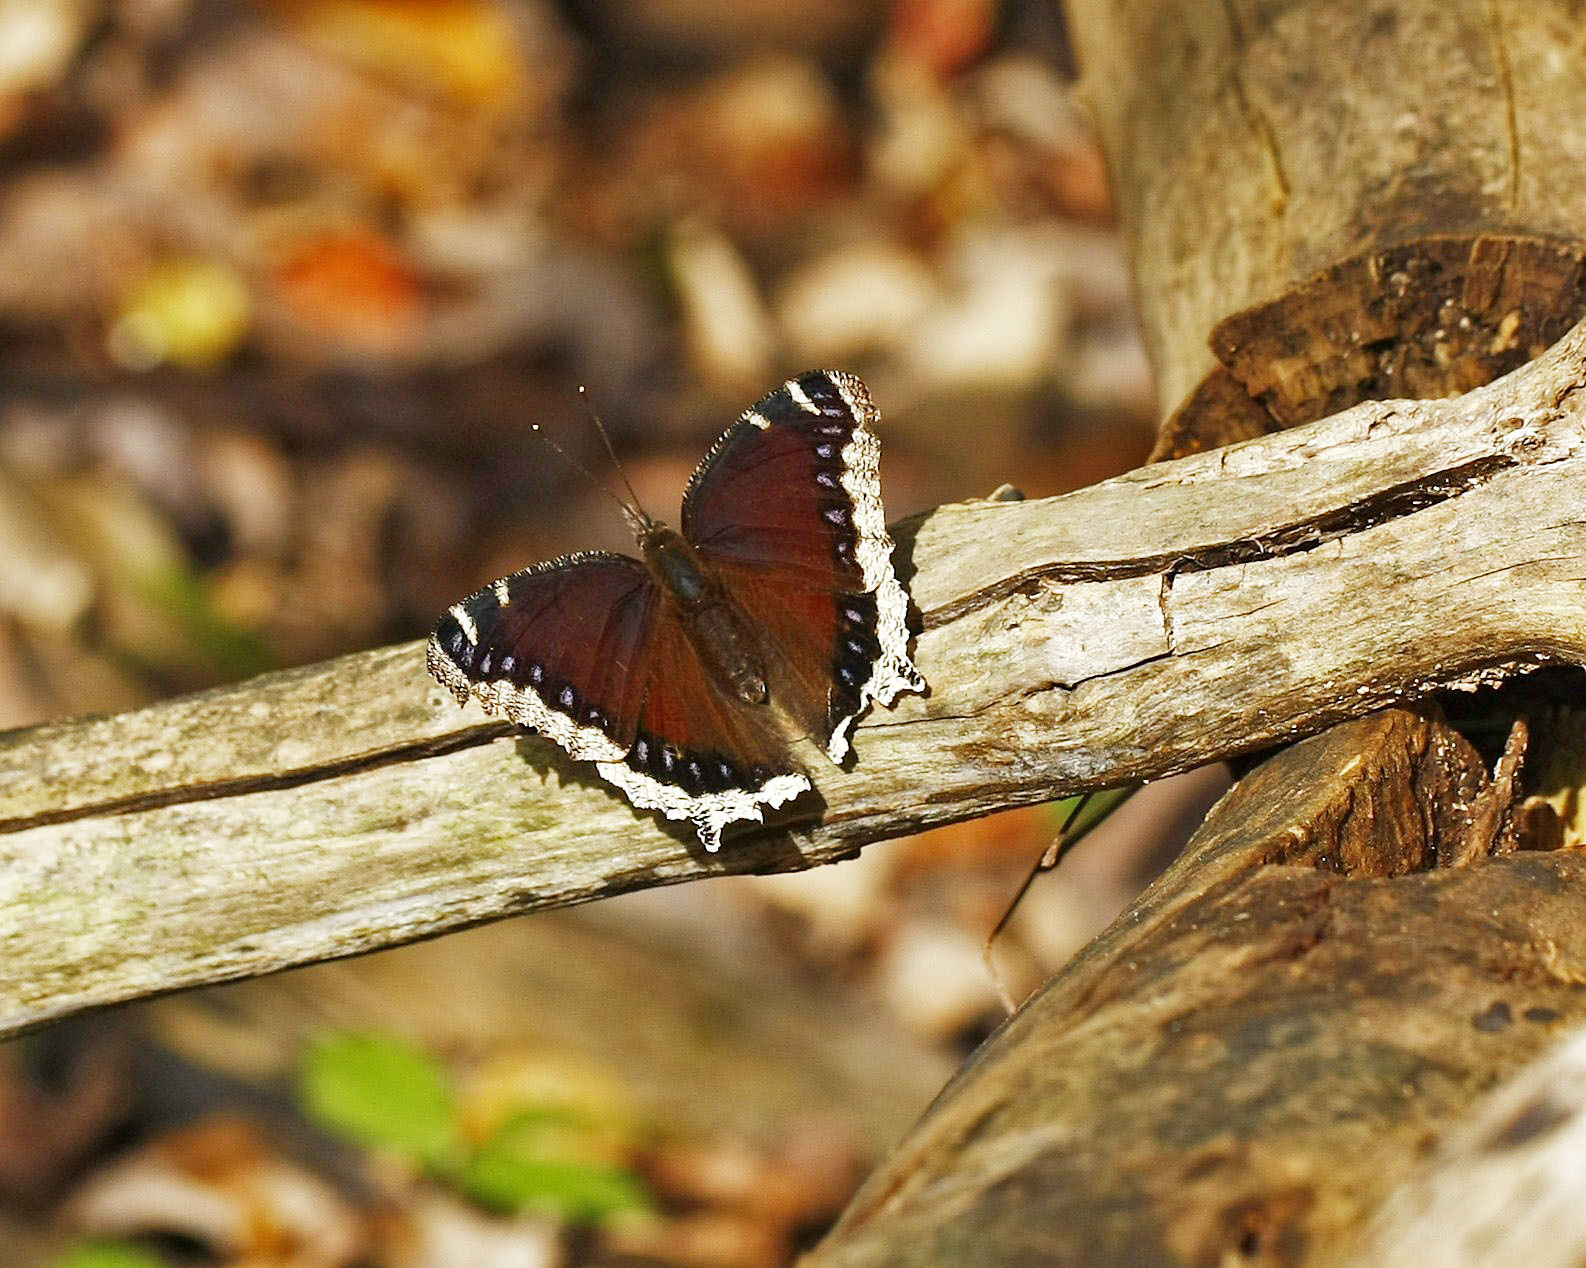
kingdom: Animalia
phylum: Arthropoda
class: Insecta
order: Lepidoptera
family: Nymphalidae
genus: Nymphalis
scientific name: Nymphalis antiopa
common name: Camberwell beauty
